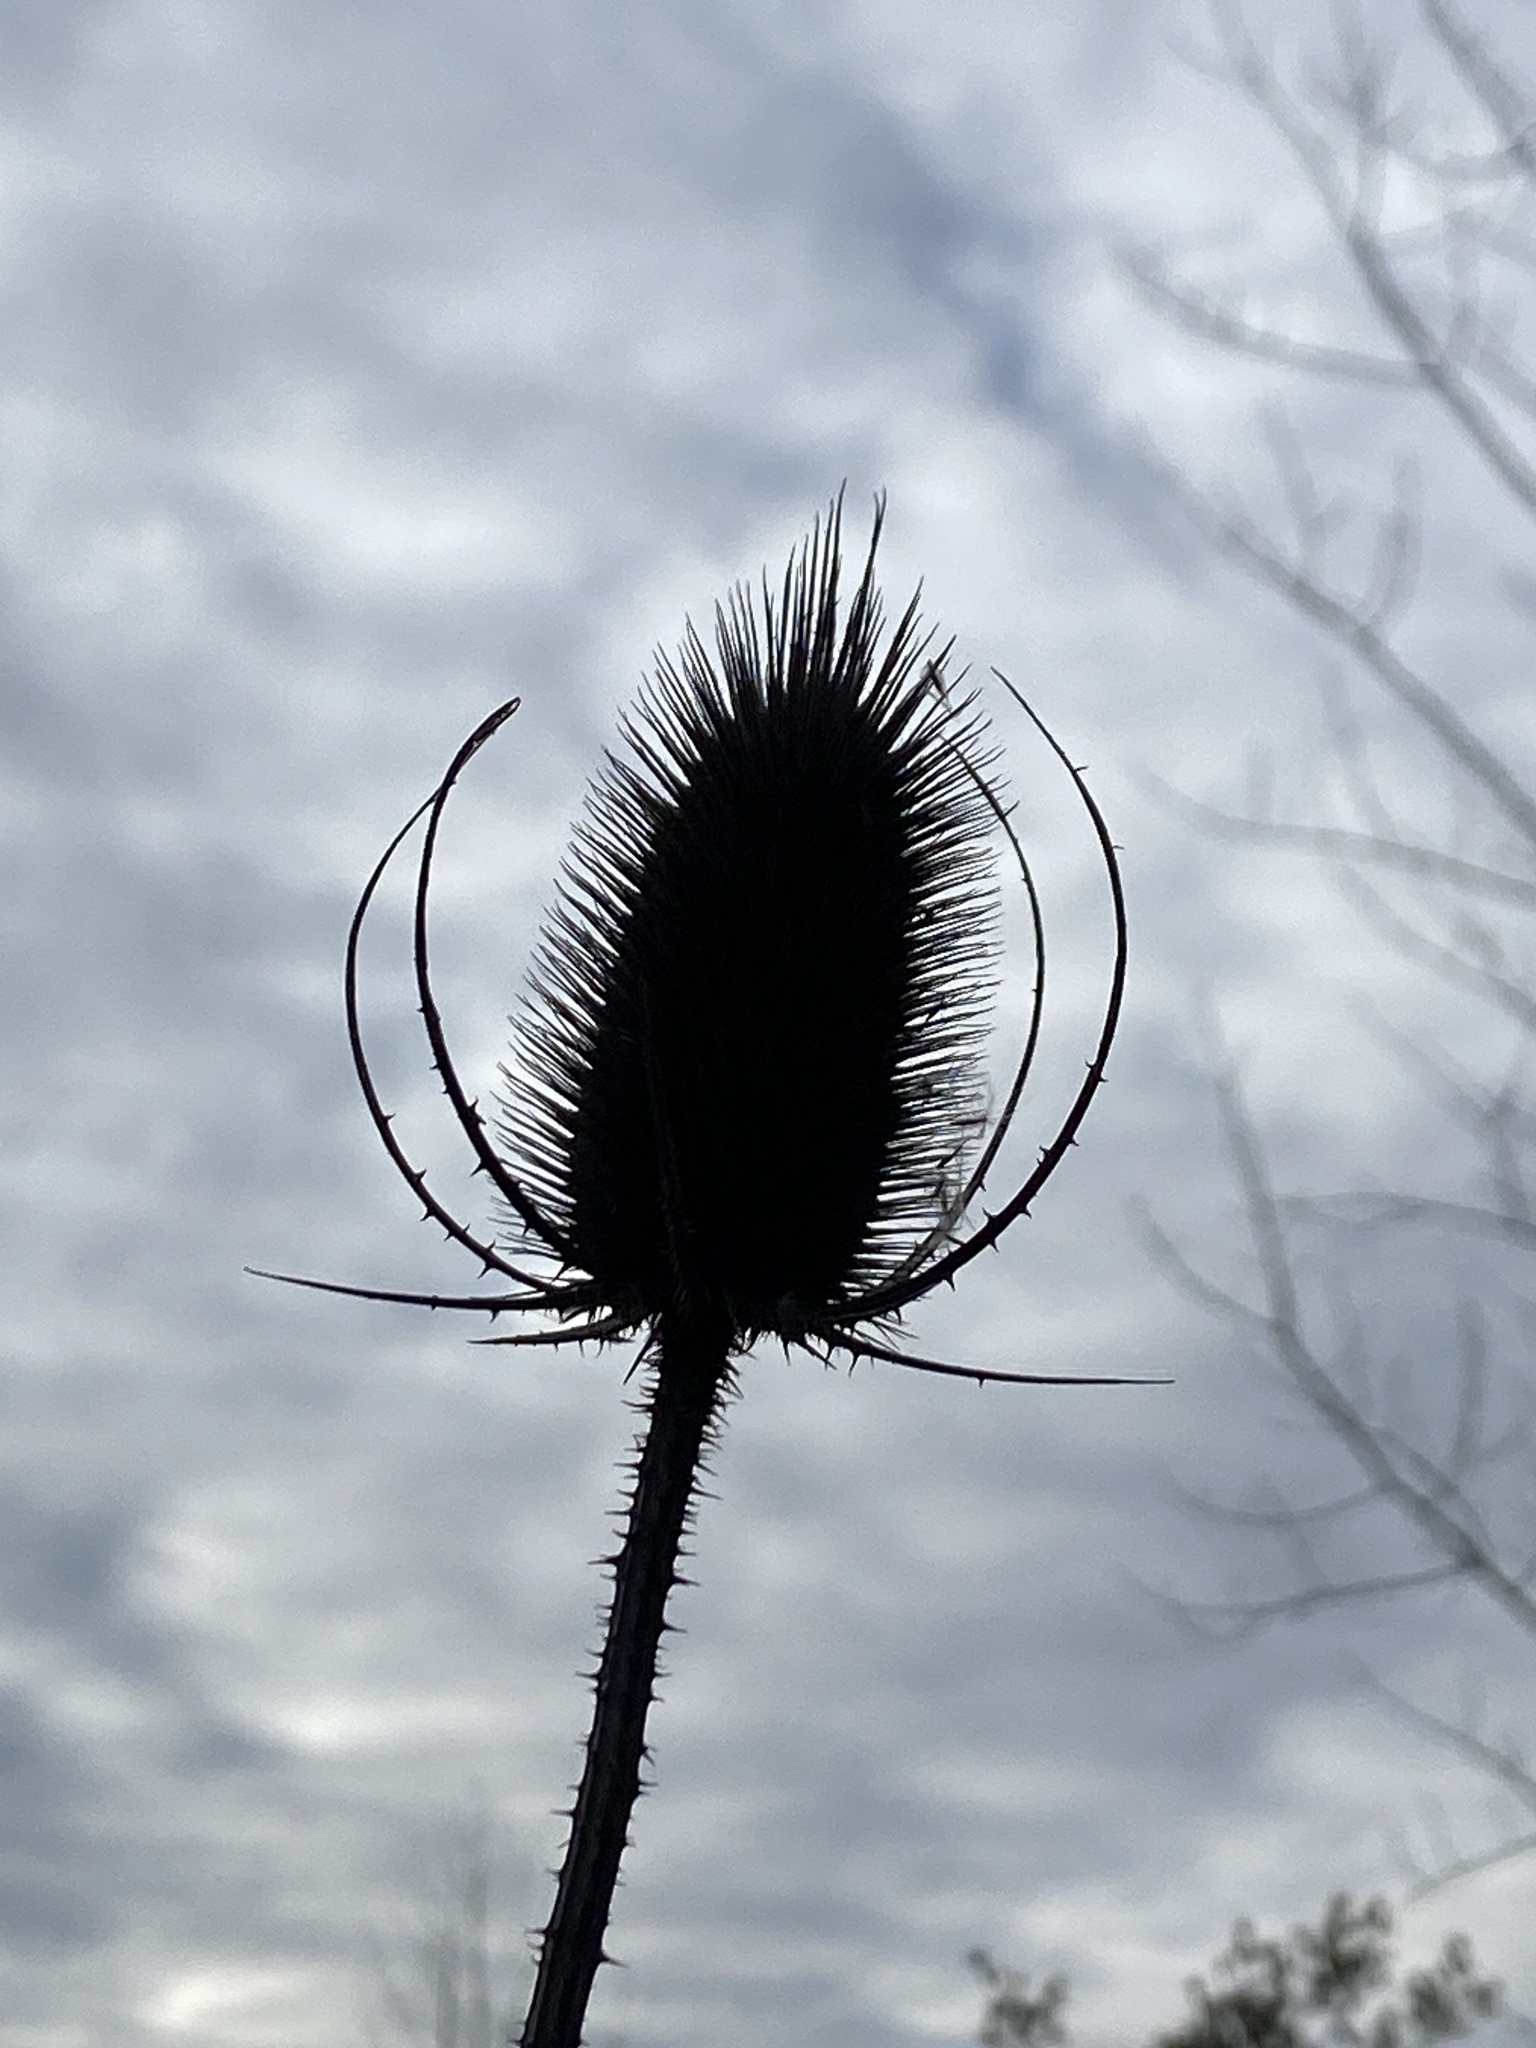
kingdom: Plantae
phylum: Tracheophyta
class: Magnoliopsida
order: Dipsacales
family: Caprifoliaceae
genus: Dipsacus
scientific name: Dipsacus fullonum
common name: Teasel
